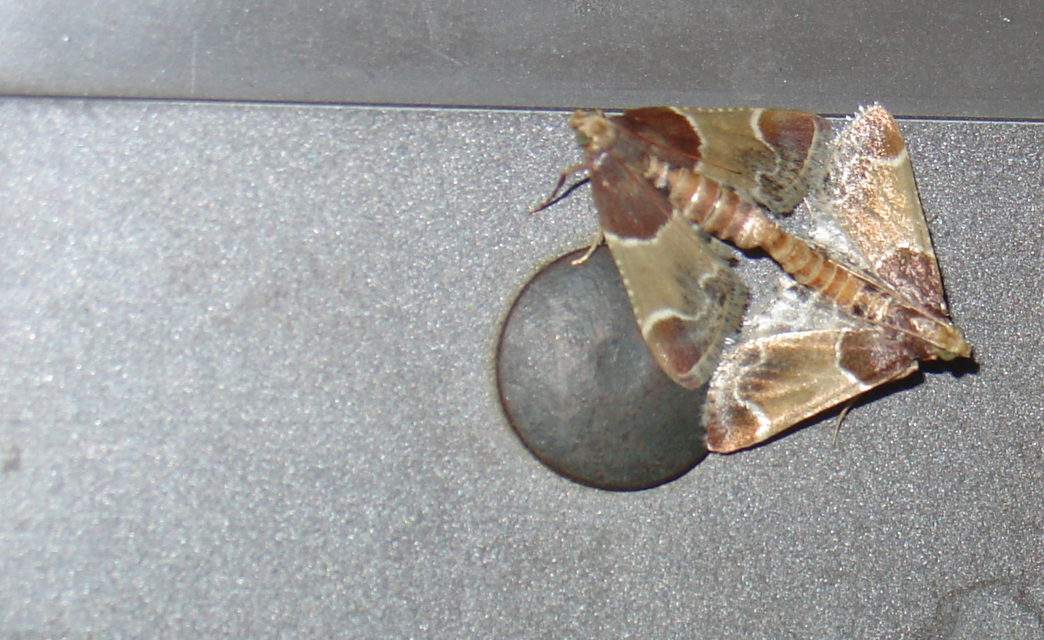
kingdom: Animalia
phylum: Arthropoda
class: Insecta
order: Lepidoptera
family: Pyralidae
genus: Pyralis
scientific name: Pyralis farinalis
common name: Meal moth
